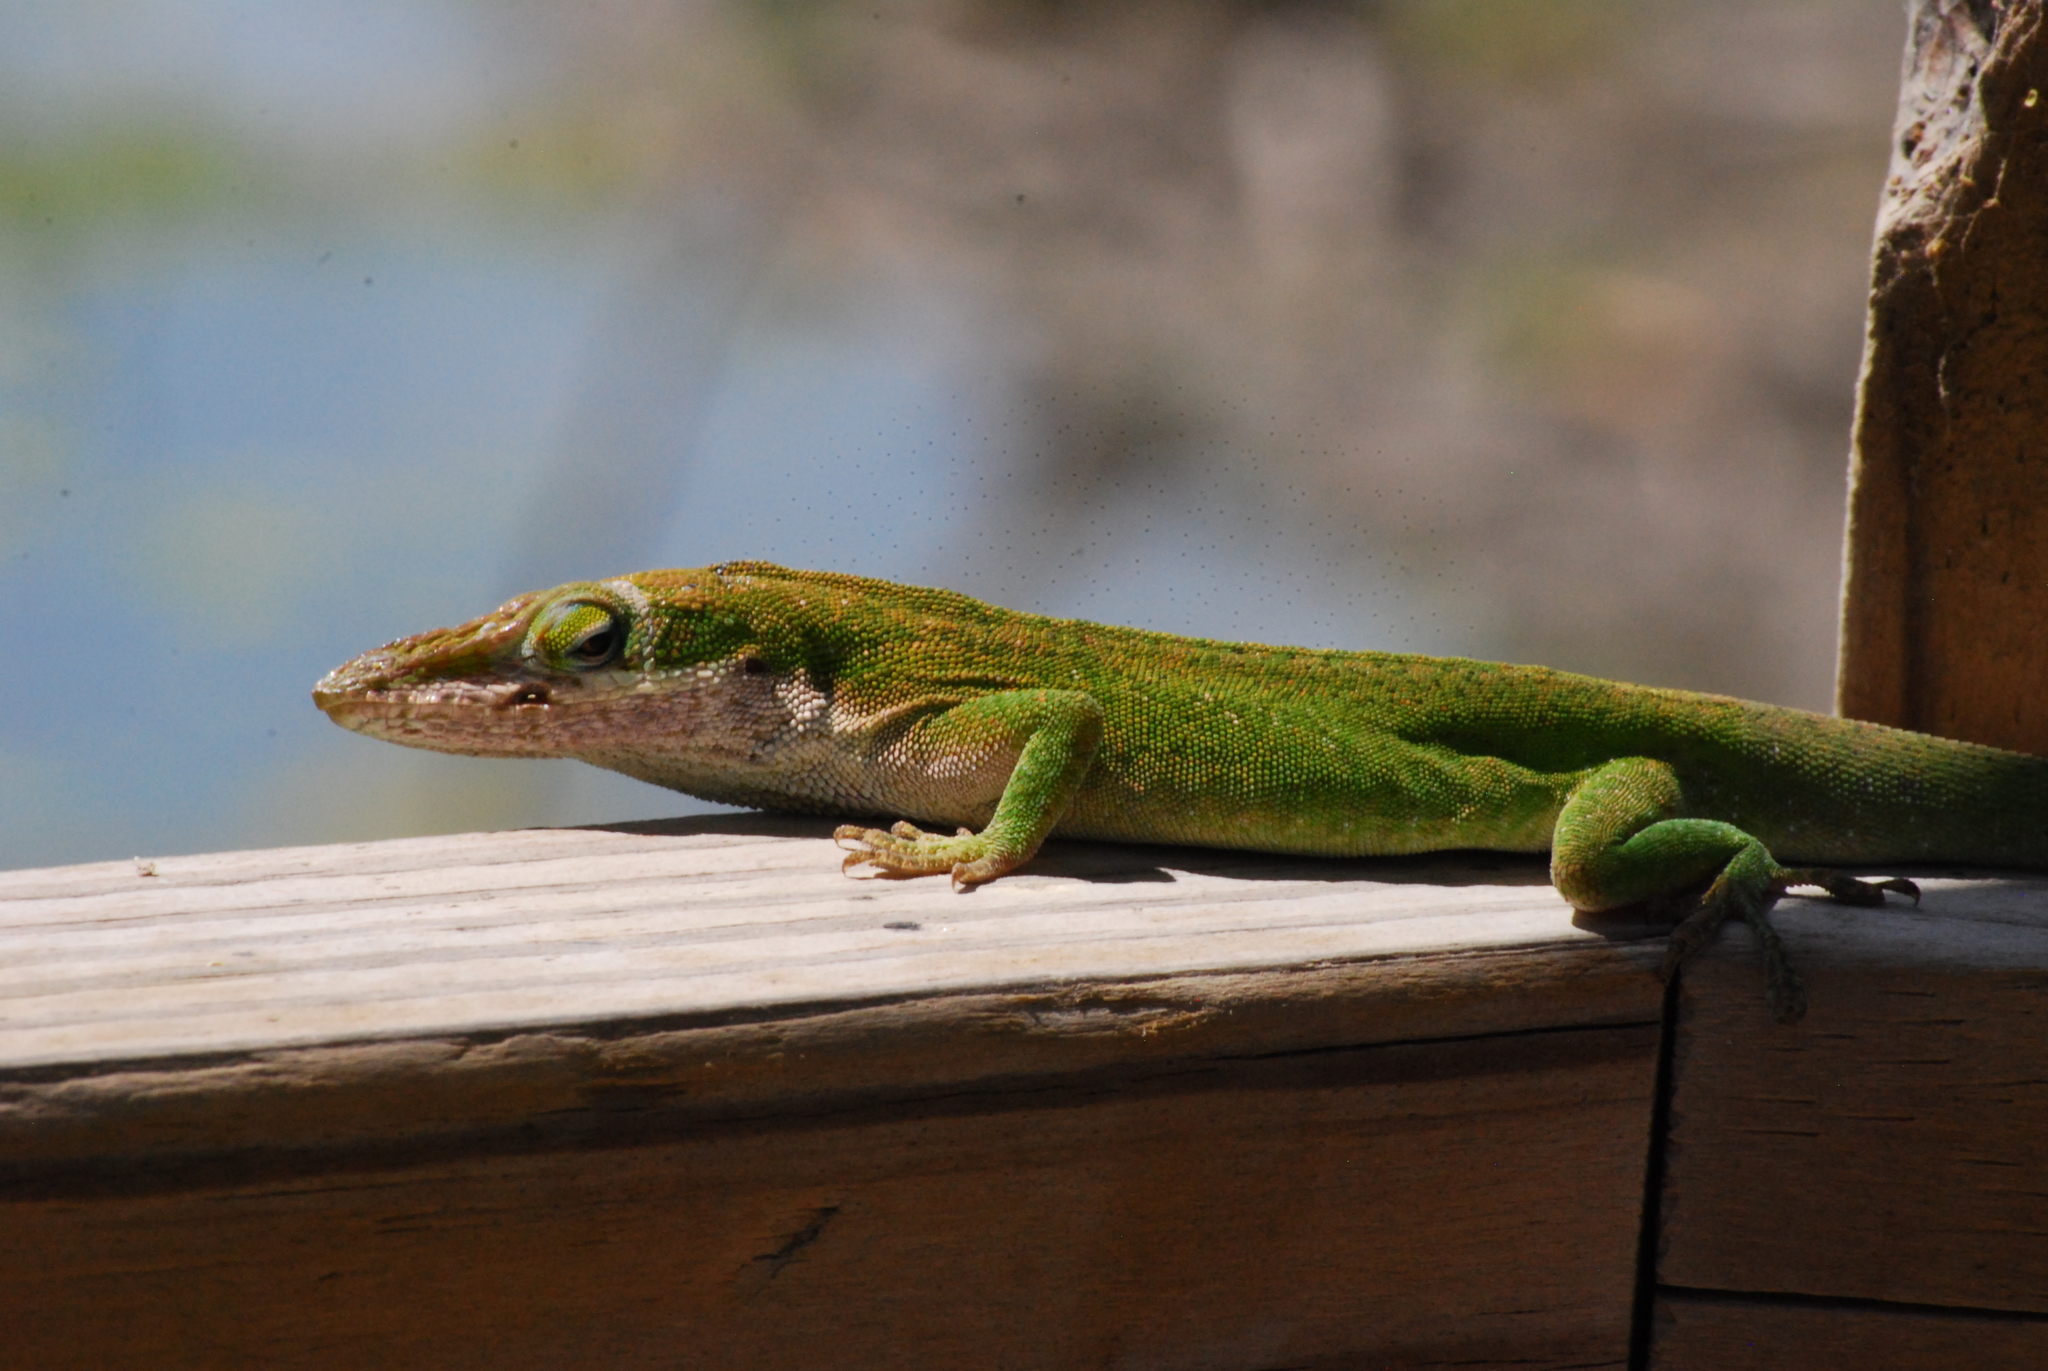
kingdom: Animalia
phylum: Chordata
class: Squamata
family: Dactyloidae
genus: Anolis
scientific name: Anolis carolinensis
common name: Green anole
